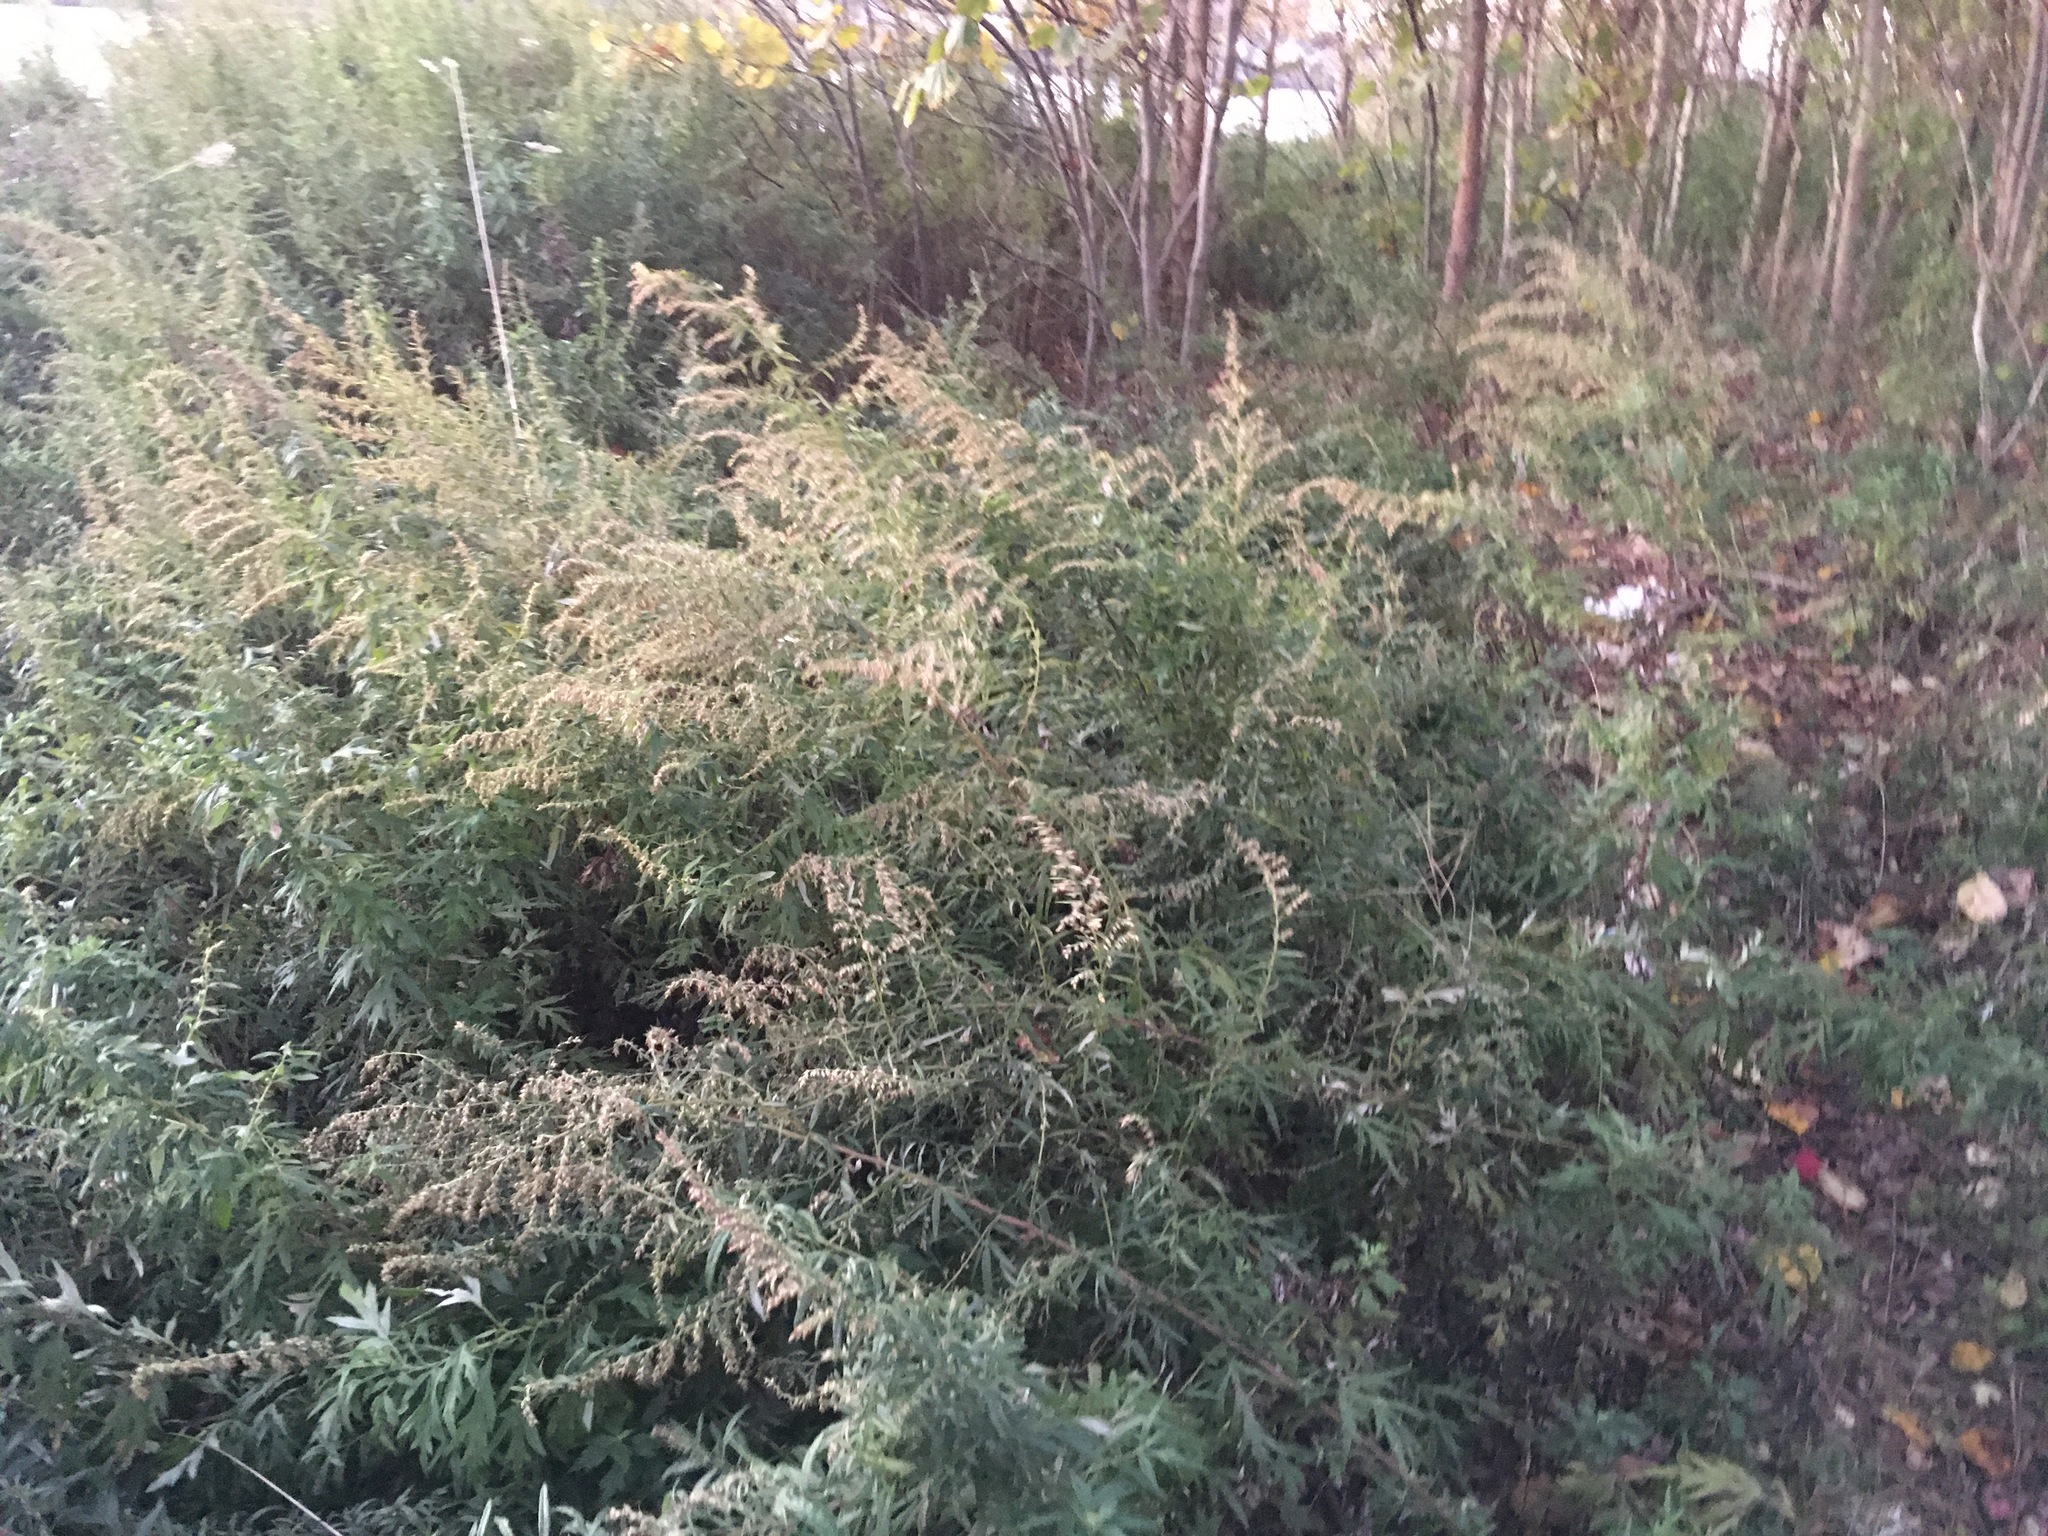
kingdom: Plantae
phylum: Tracheophyta
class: Magnoliopsida
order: Asterales
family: Asteraceae
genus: Artemisia
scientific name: Artemisia vulgaris
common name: Mugwort
